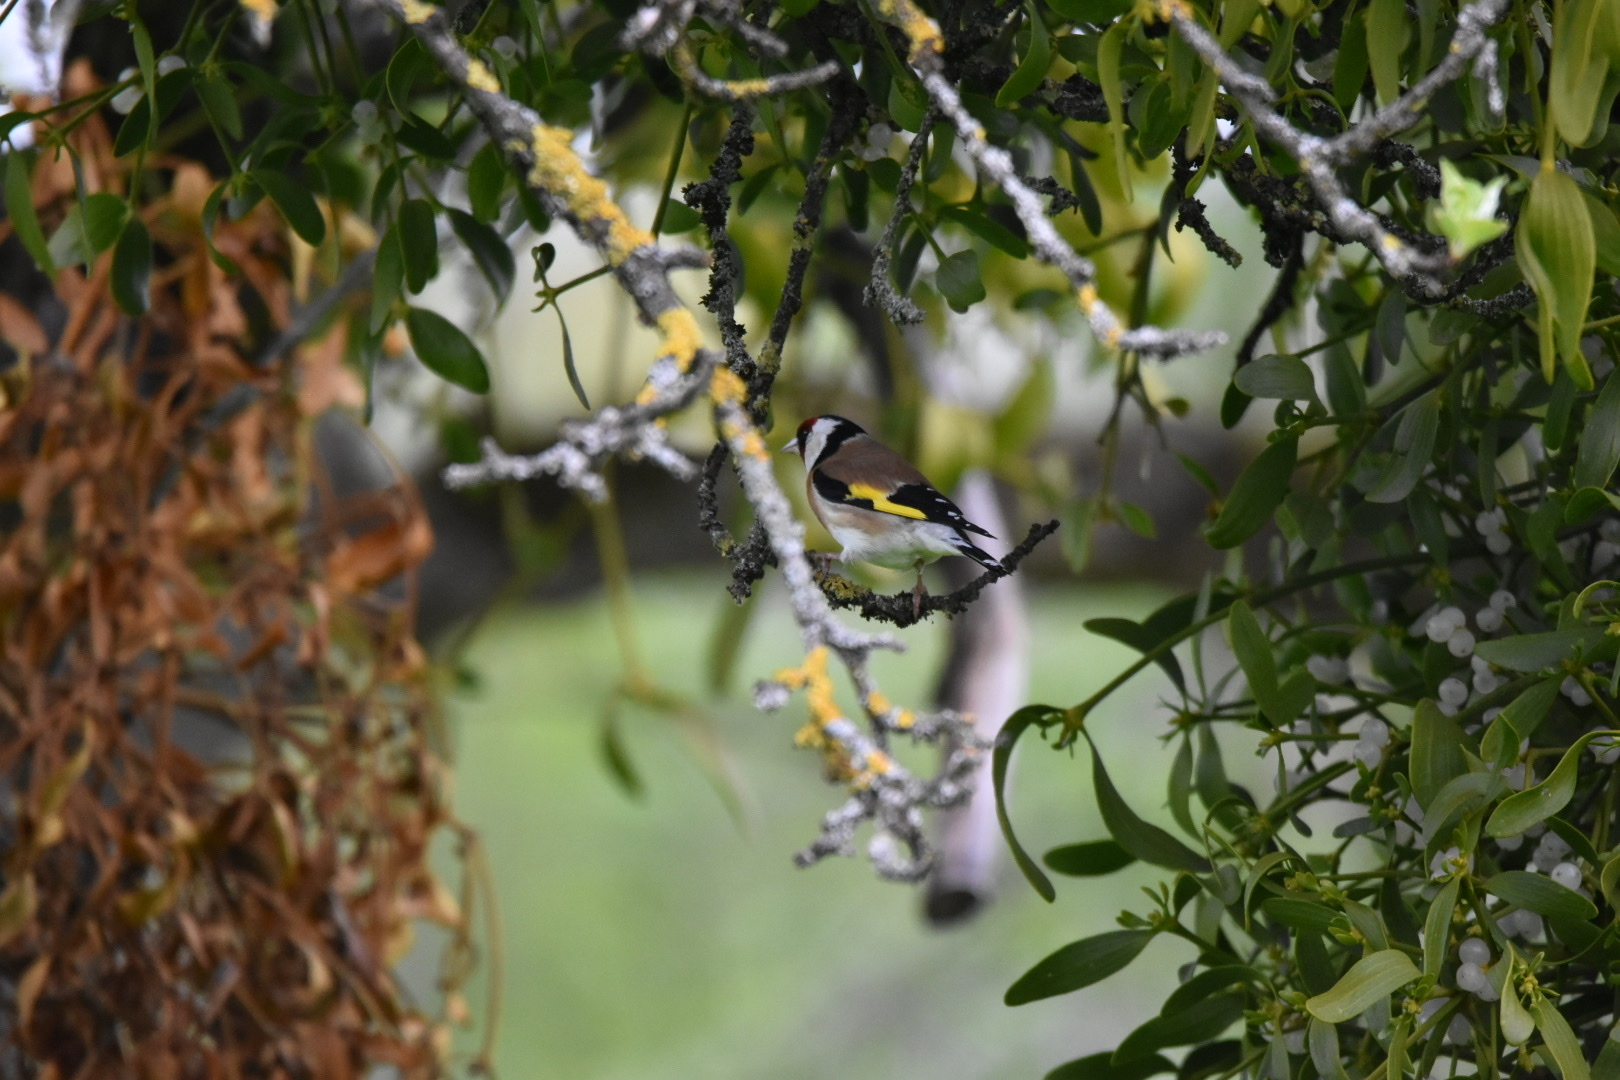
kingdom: Animalia
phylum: Chordata
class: Aves
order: Passeriformes
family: Fringillidae
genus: Carduelis
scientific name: Carduelis carduelis
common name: European goldfinch
